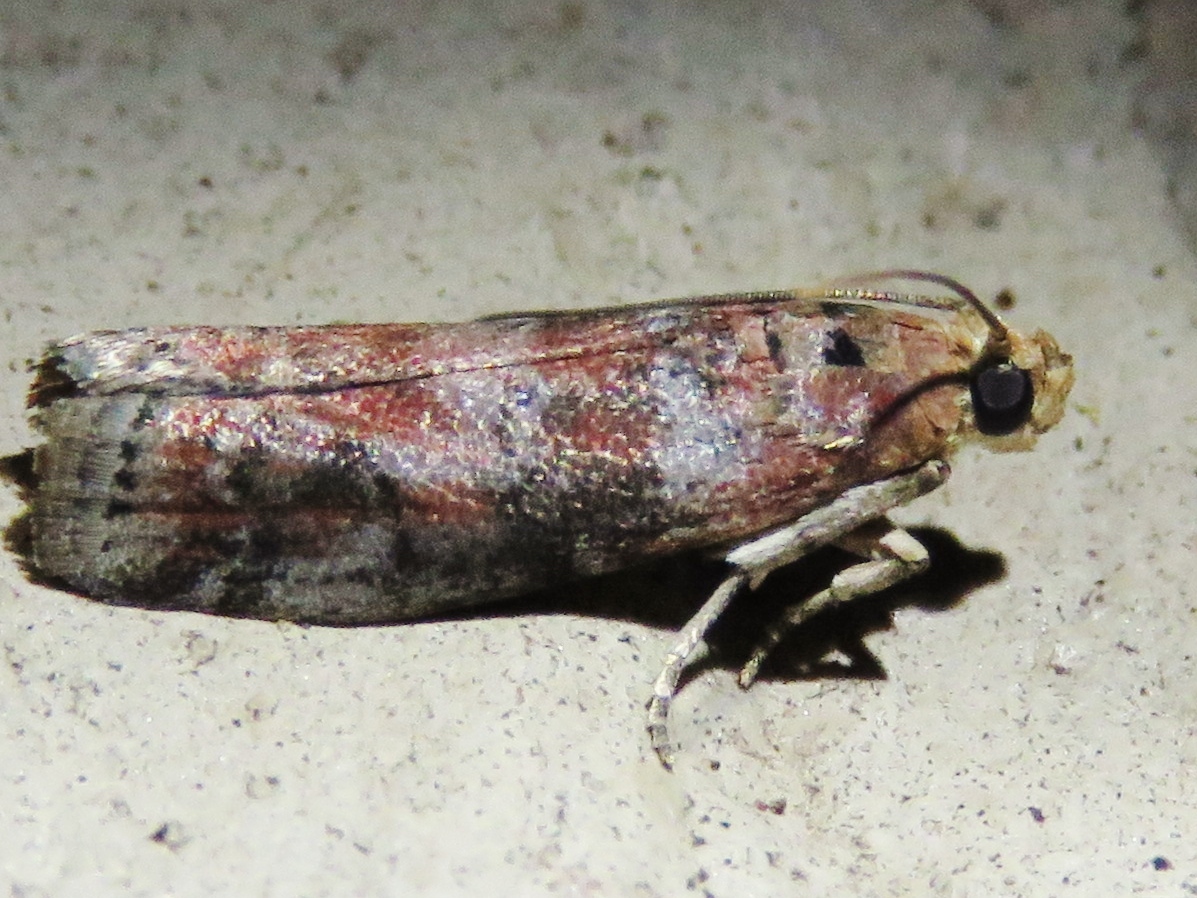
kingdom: Animalia
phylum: Arthropoda
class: Insecta
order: Lepidoptera
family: Pyralidae
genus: Sciota
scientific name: Sciota
